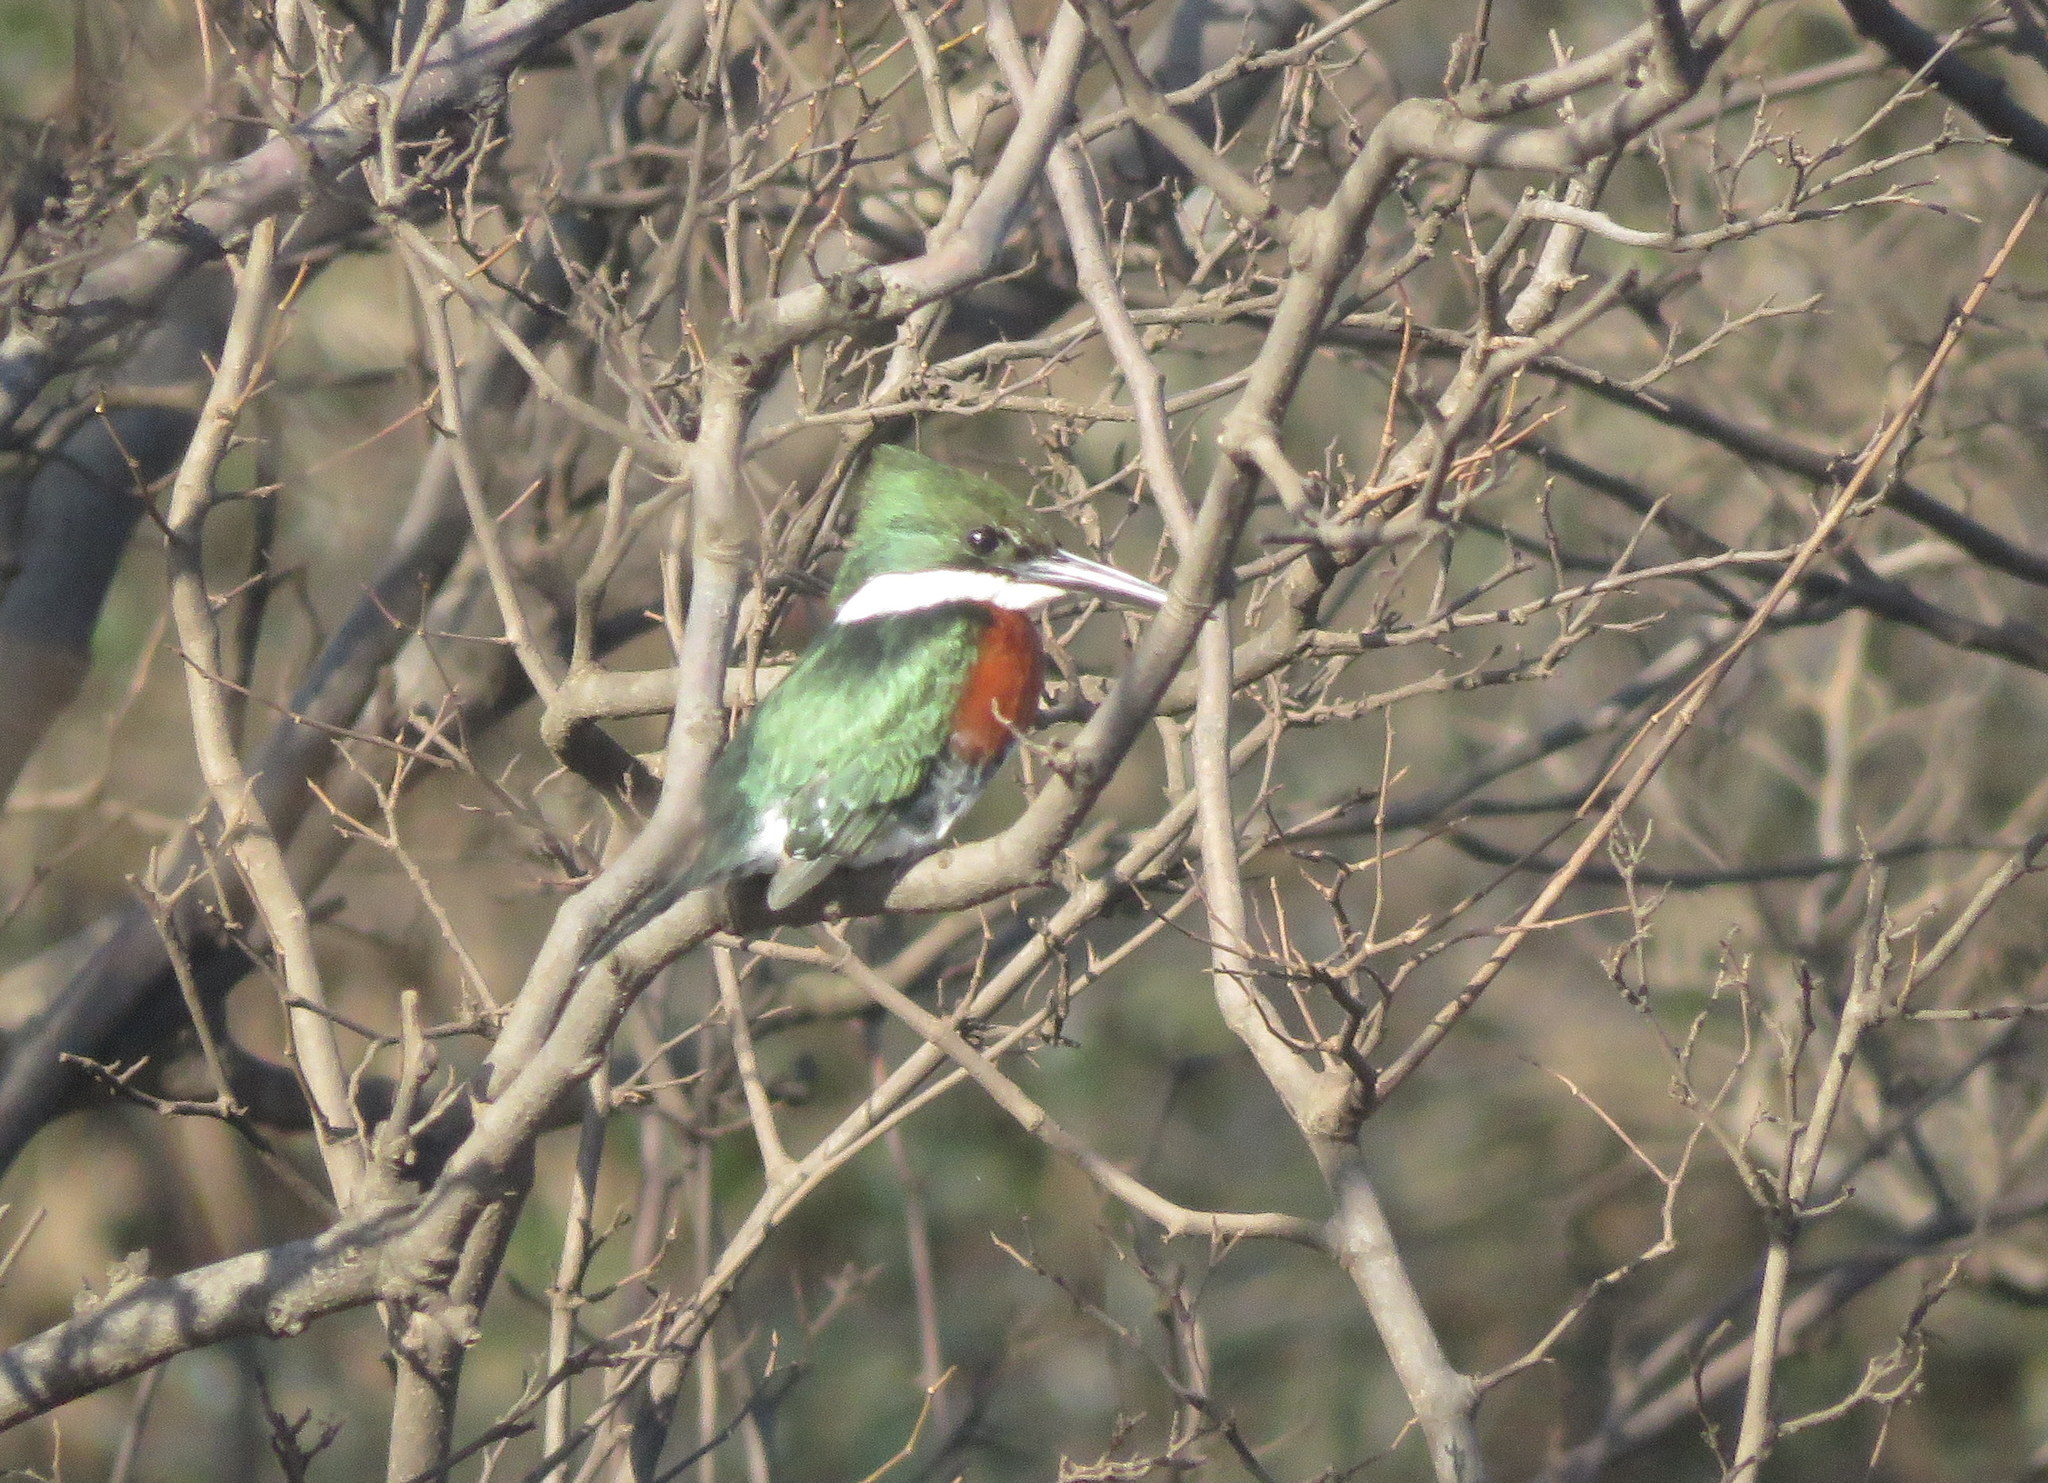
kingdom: Animalia
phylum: Chordata
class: Aves
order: Coraciiformes
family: Alcedinidae
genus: Chloroceryle
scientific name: Chloroceryle americana
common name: Green kingfisher
